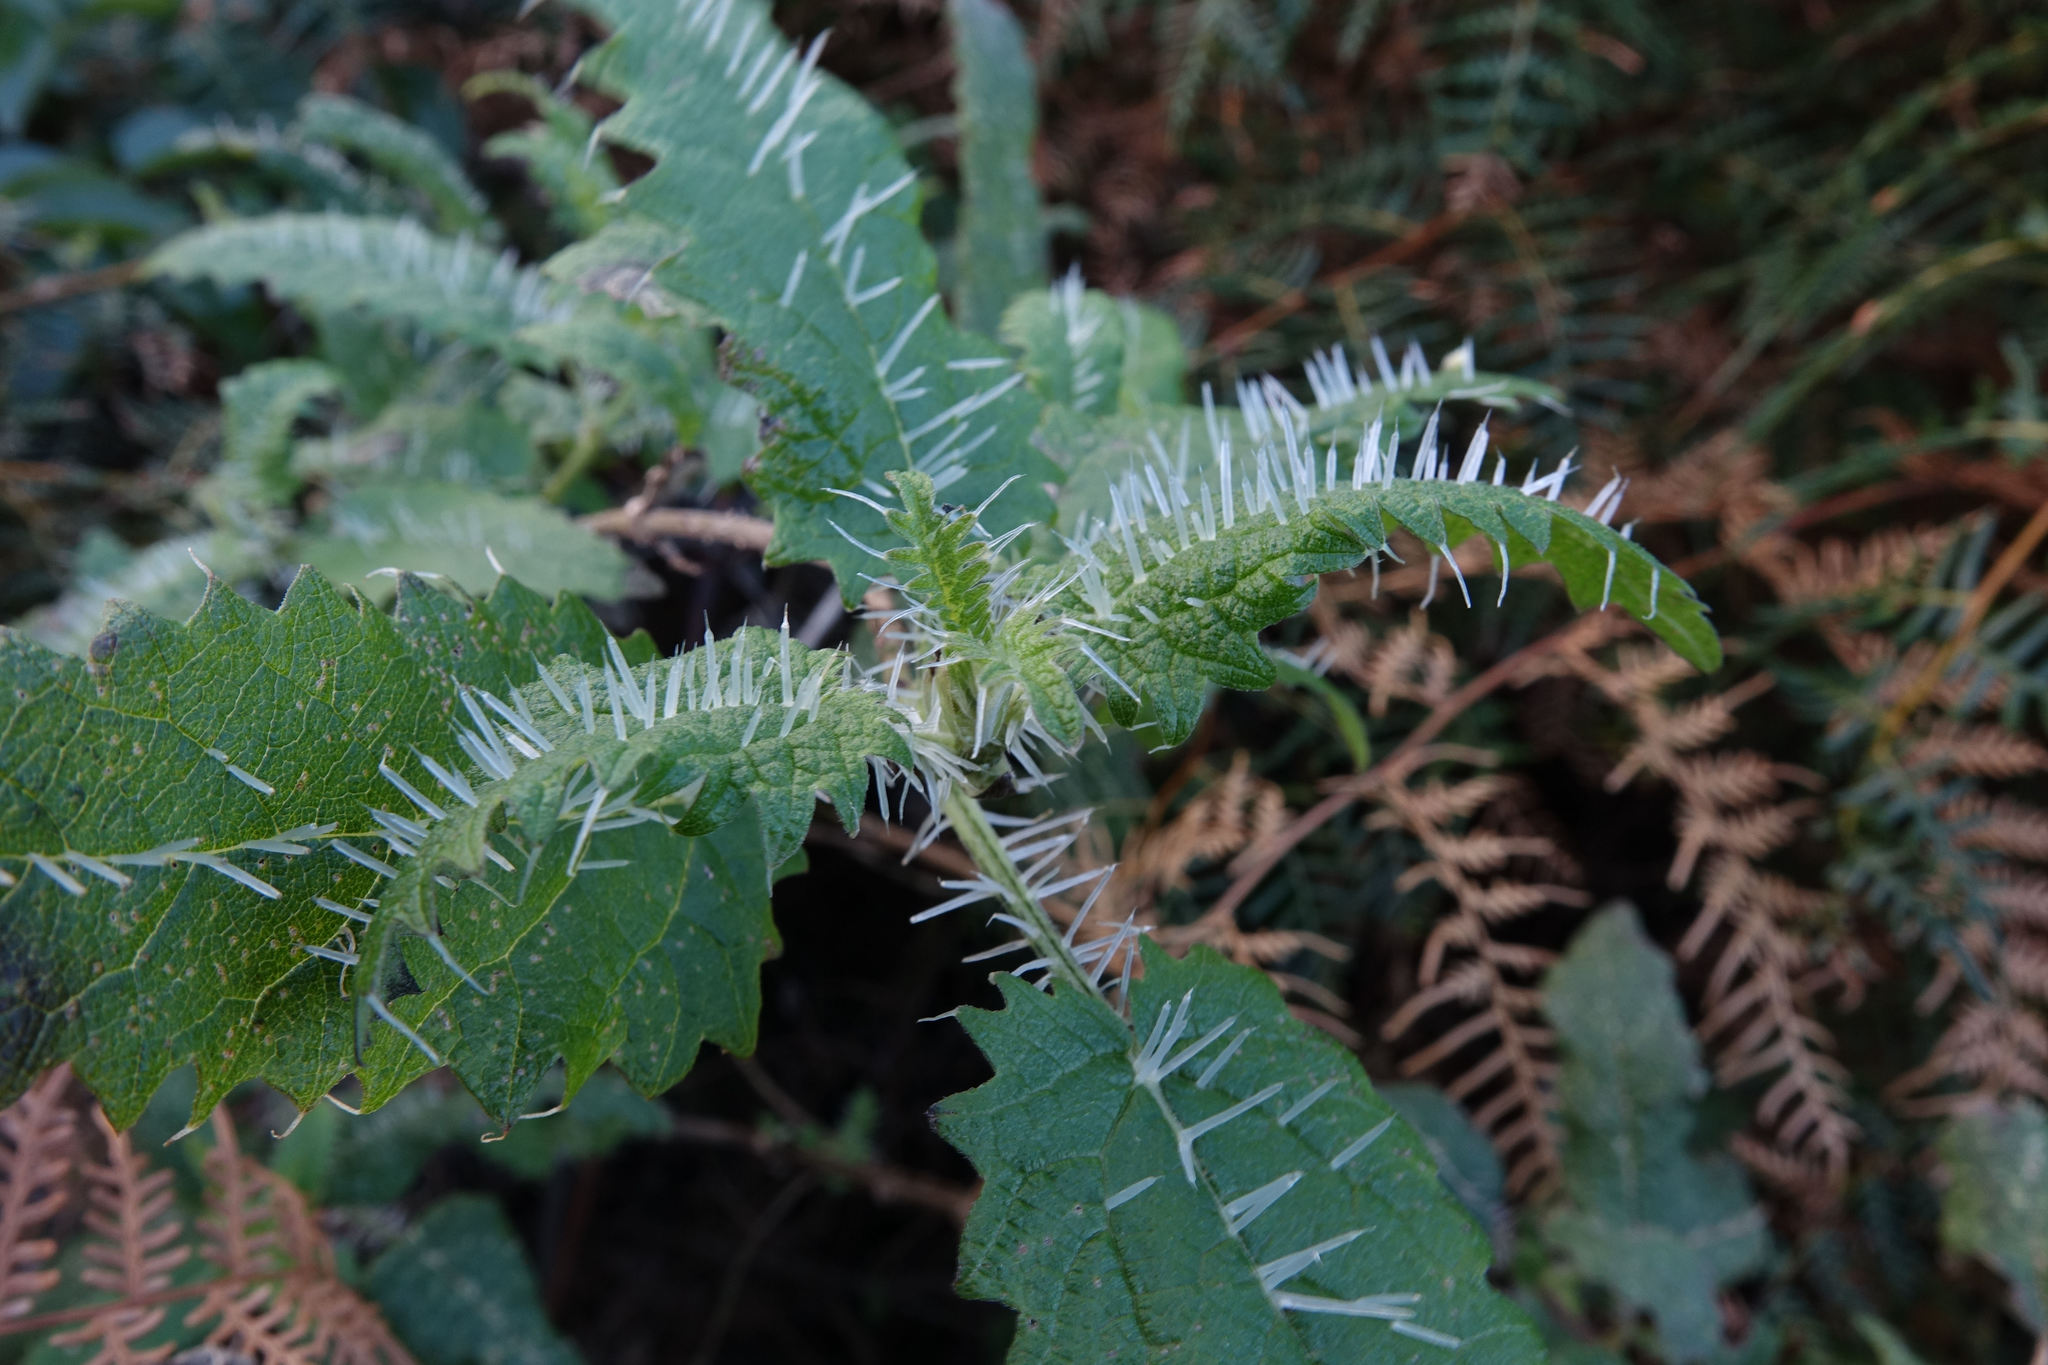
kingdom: Plantae
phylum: Tracheophyta
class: Magnoliopsida
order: Rosales
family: Urticaceae
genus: Urtica
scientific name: Urtica ferox
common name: Tree nettle
